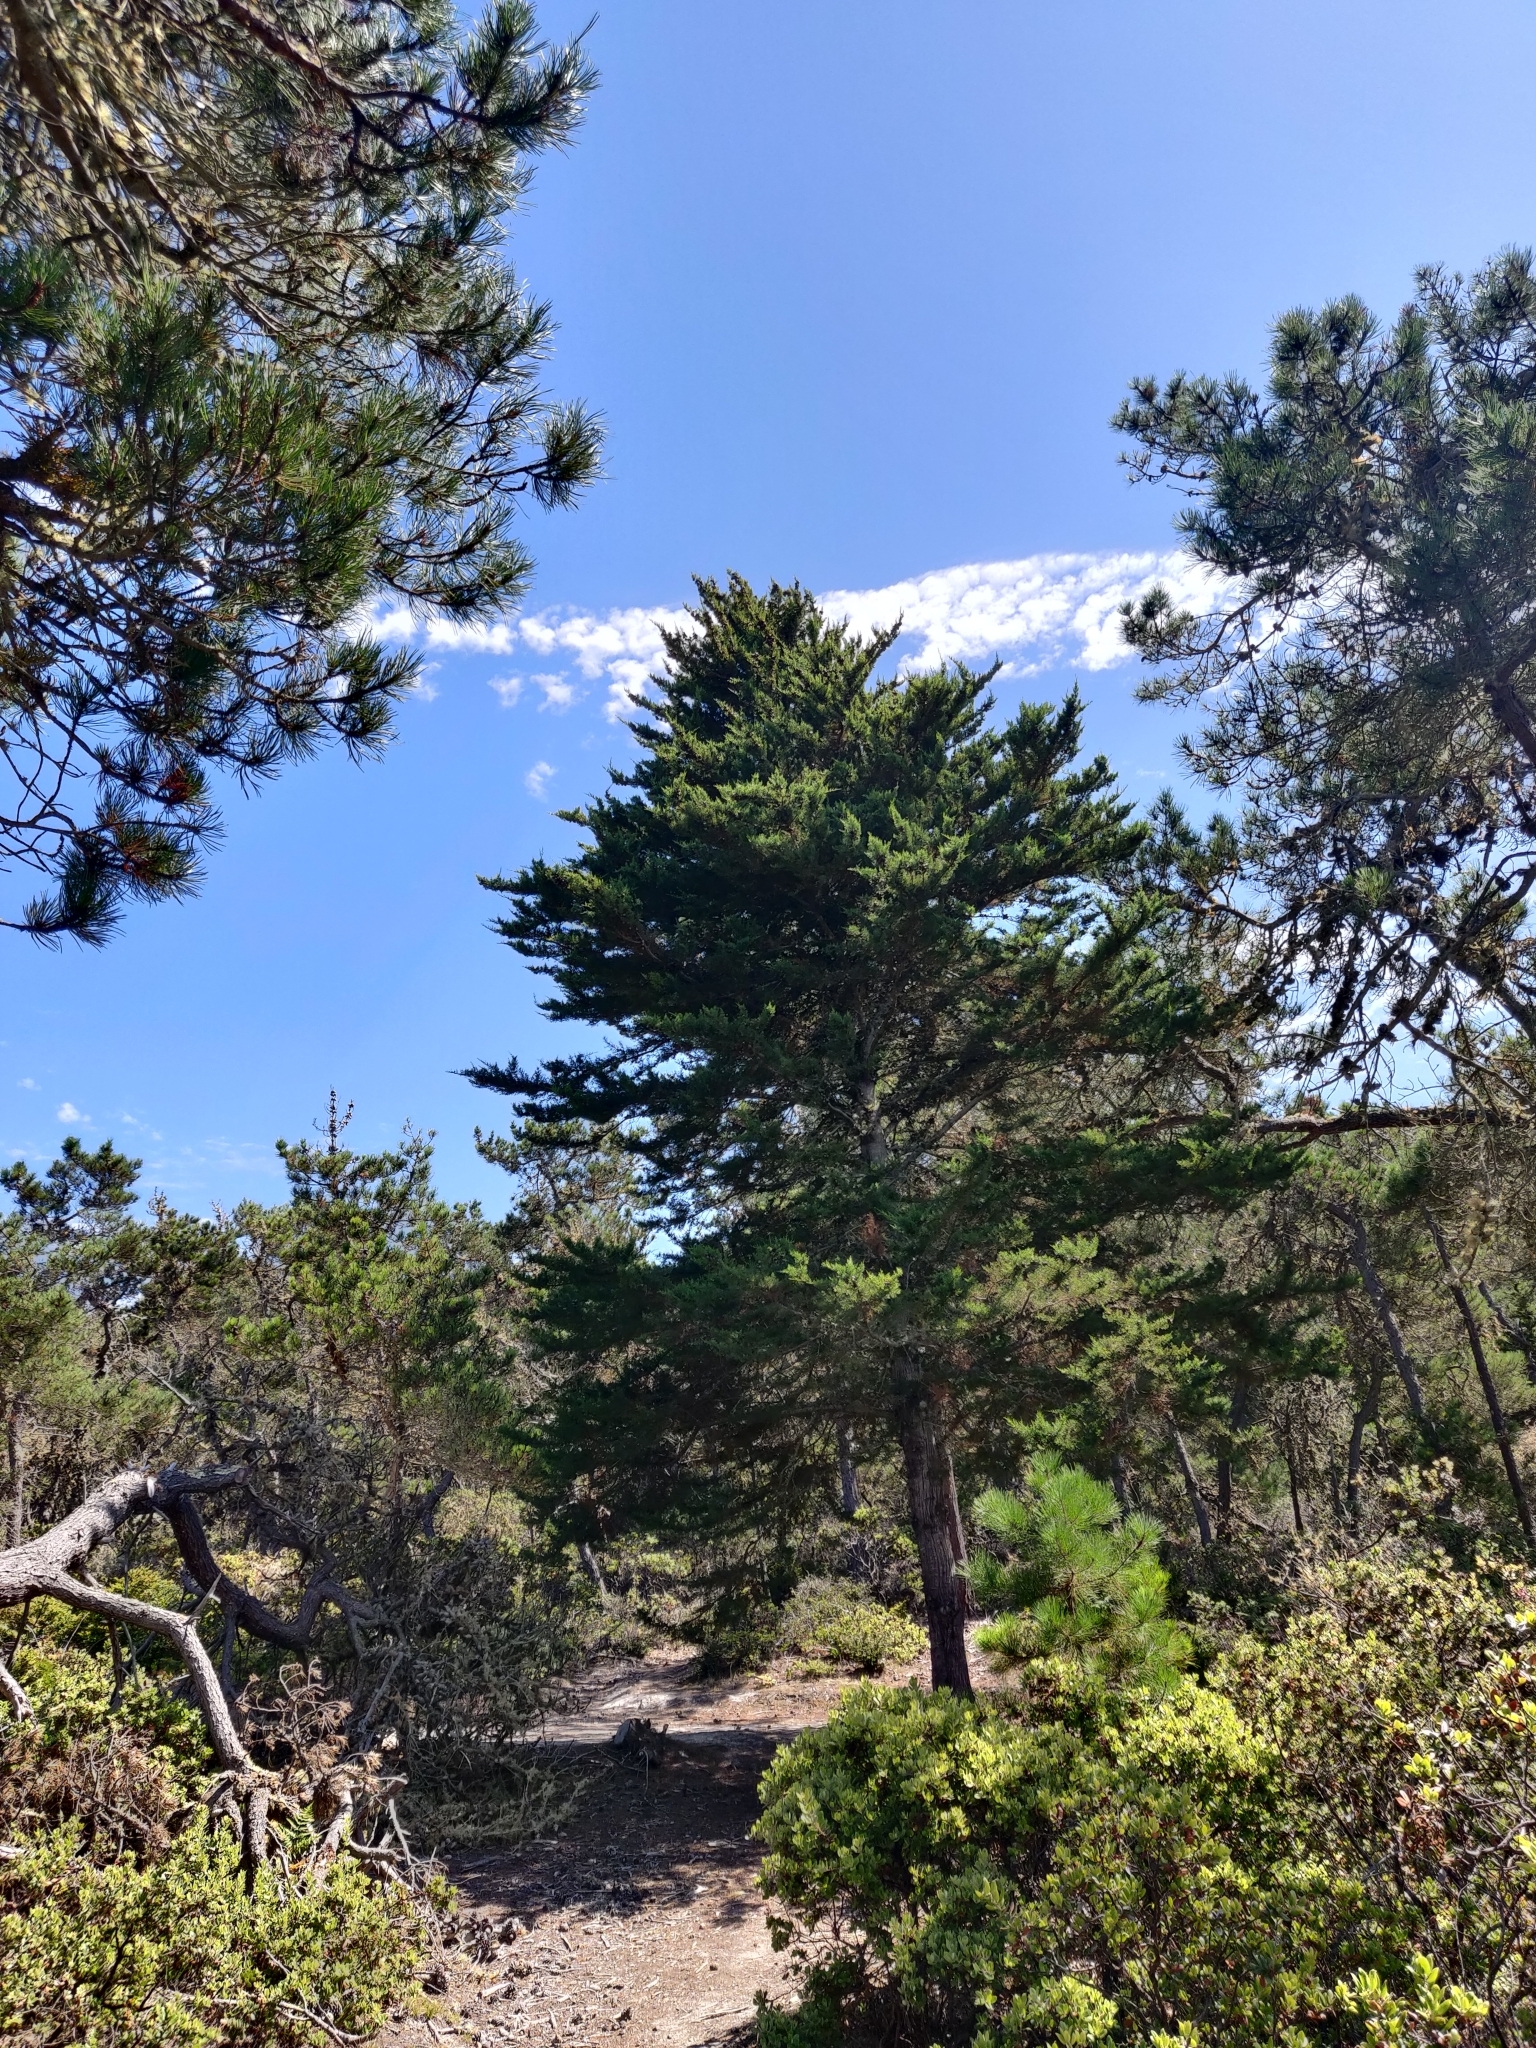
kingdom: Plantae
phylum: Tracheophyta
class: Pinopsida
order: Pinales
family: Cupressaceae
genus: Cupressus
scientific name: Cupressus goveniana
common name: Gowen cypress
